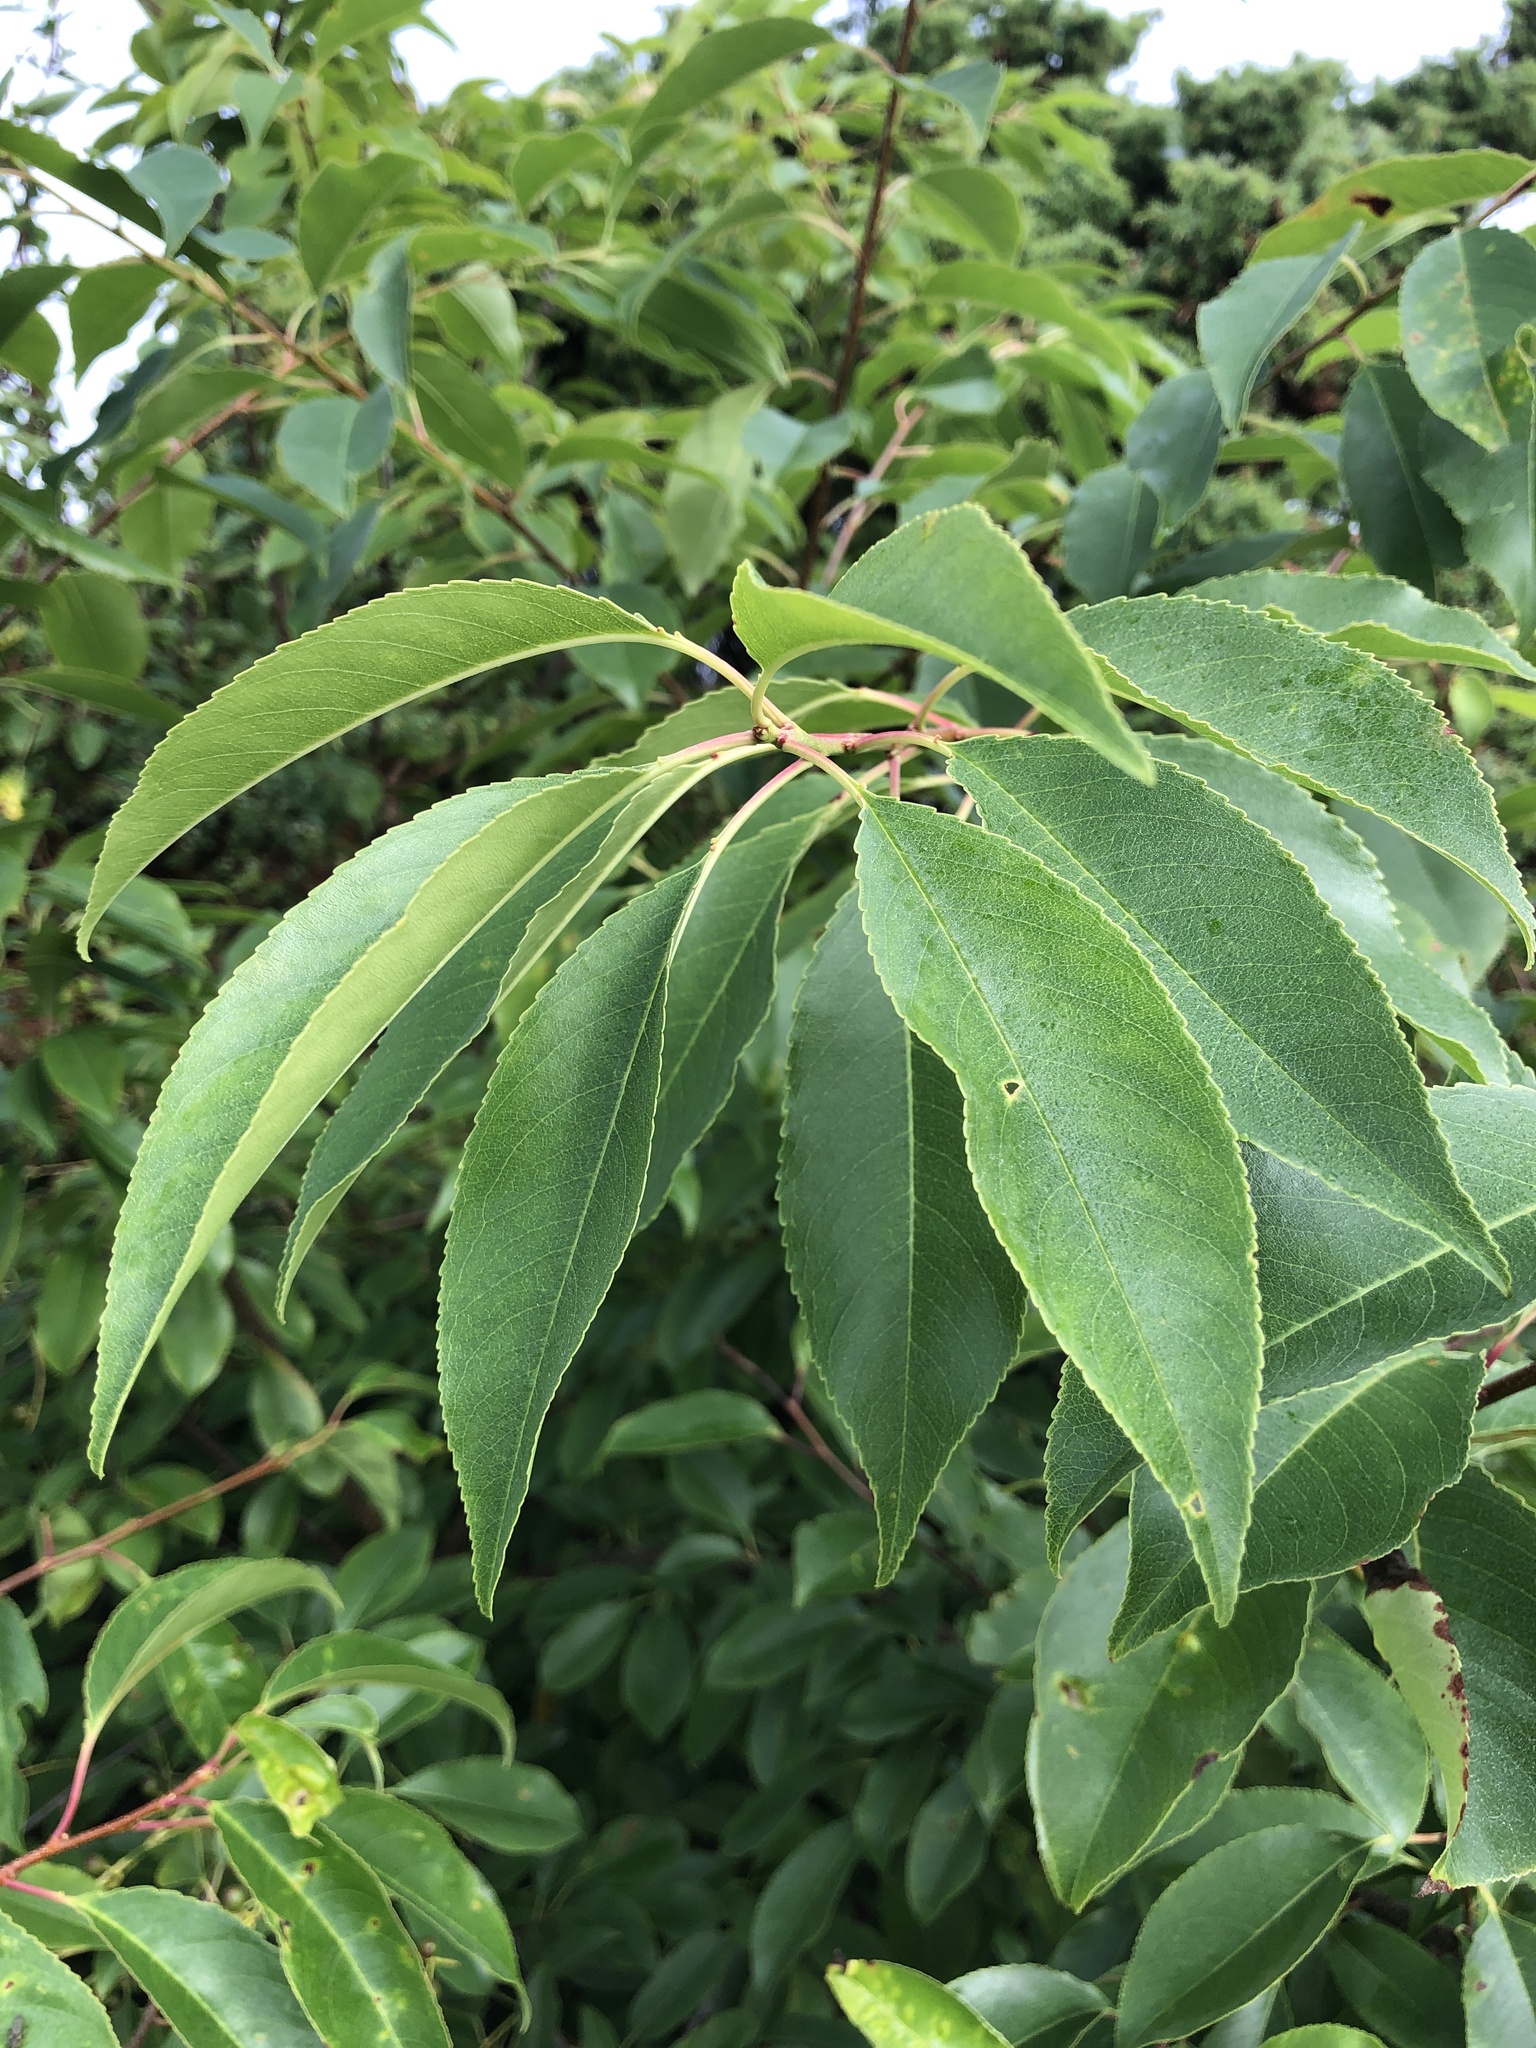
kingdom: Plantae
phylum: Tracheophyta
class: Magnoliopsida
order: Rosales
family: Rosaceae
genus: Prunus
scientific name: Prunus serotina
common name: Black cherry
